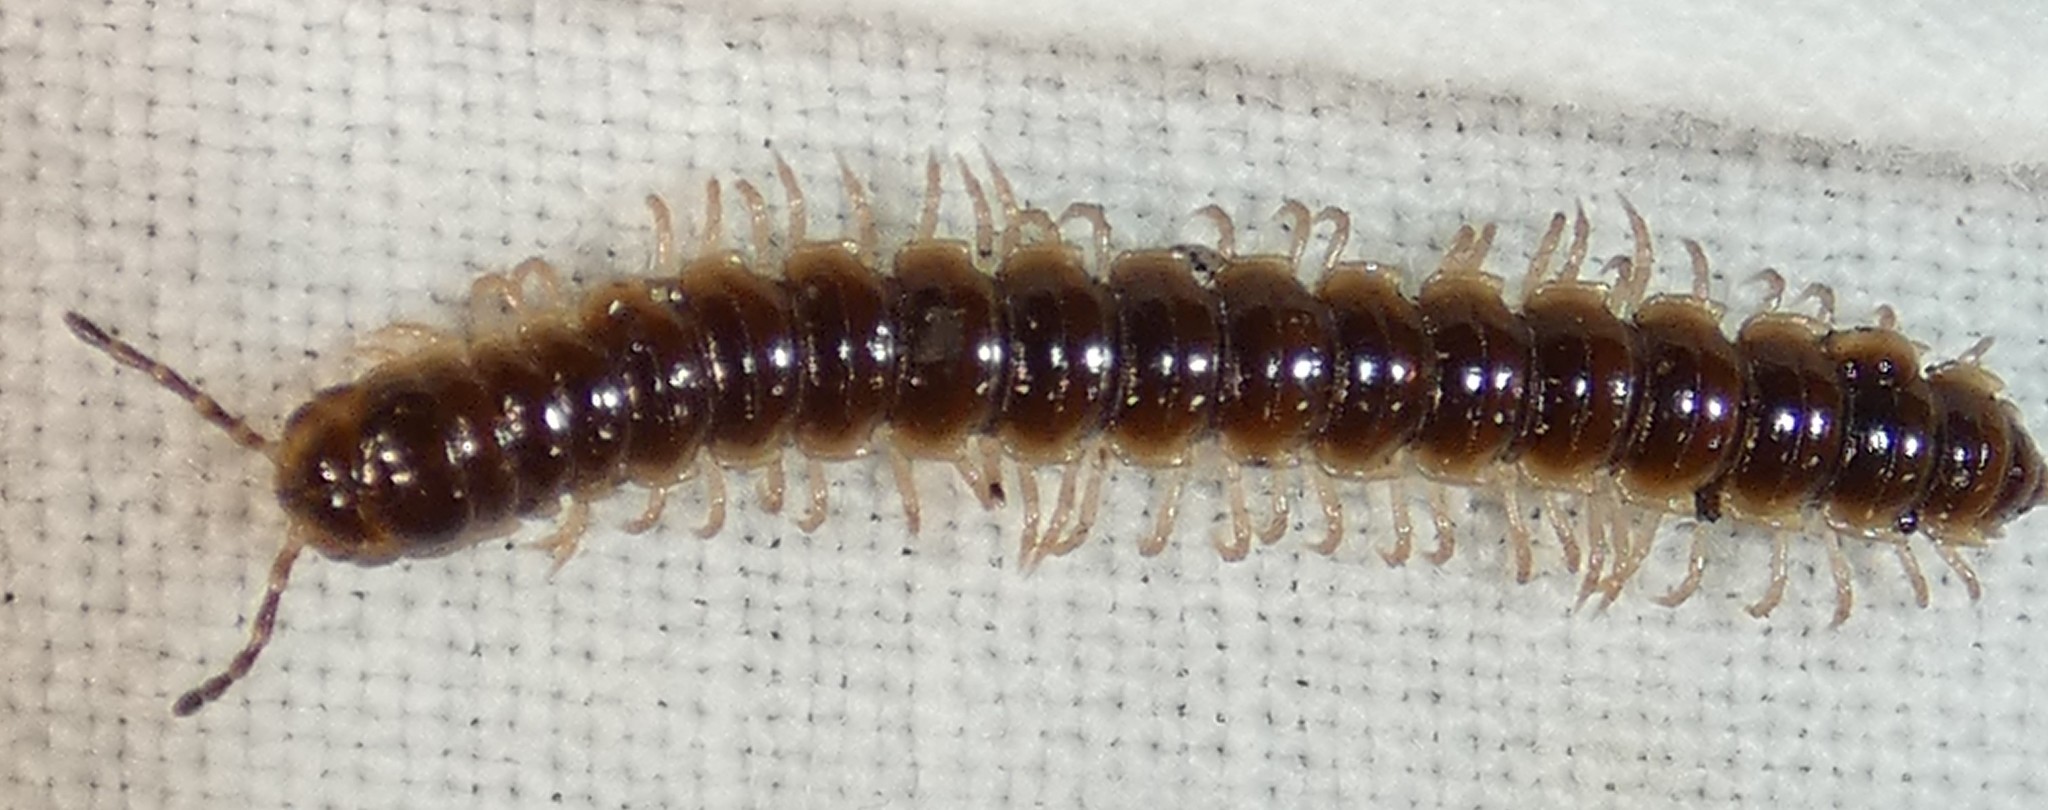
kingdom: Animalia
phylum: Arthropoda
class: Diplopoda
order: Polydesmida
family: Paradoxosomatidae
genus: Oxidus
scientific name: Oxidus gracilis
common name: Greenhouse millipede
